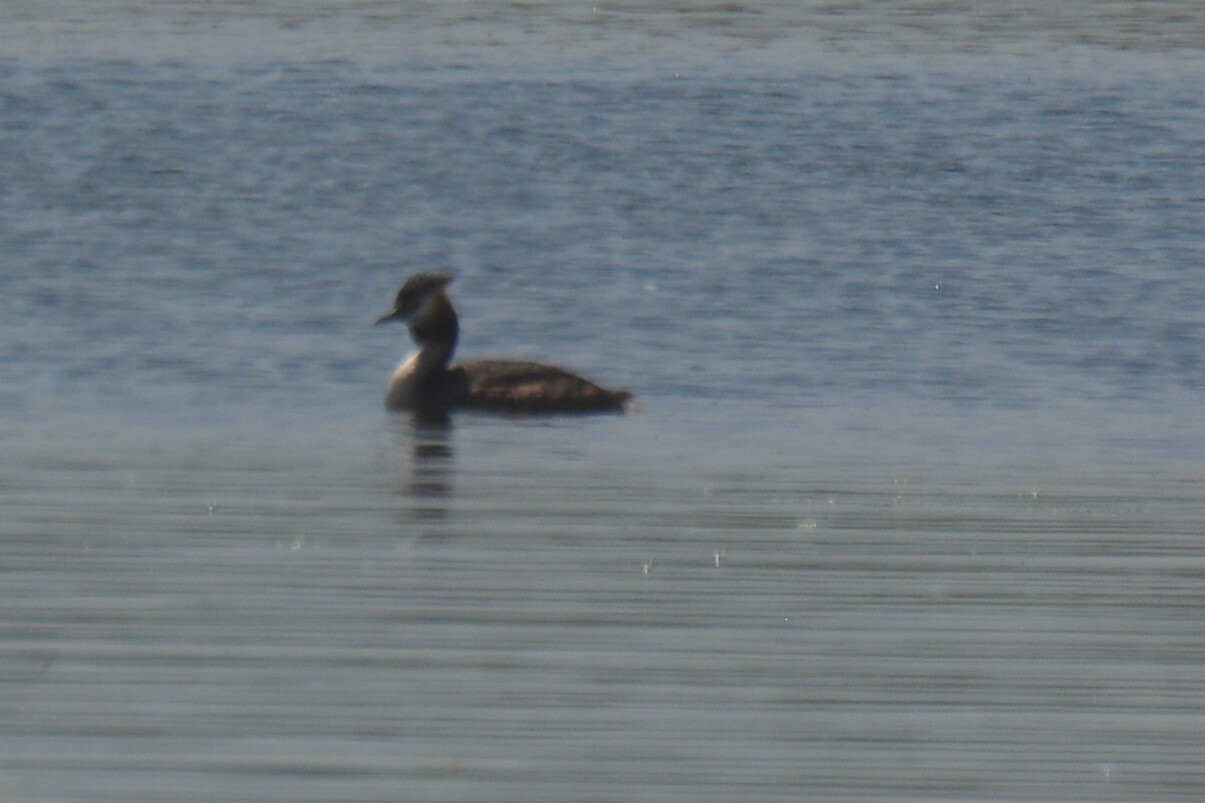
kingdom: Animalia
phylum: Chordata
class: Aves
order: Podicipediformes
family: Podicipedidae
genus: Podiceps
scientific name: Podiceps cristatus
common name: Great crested grebe
